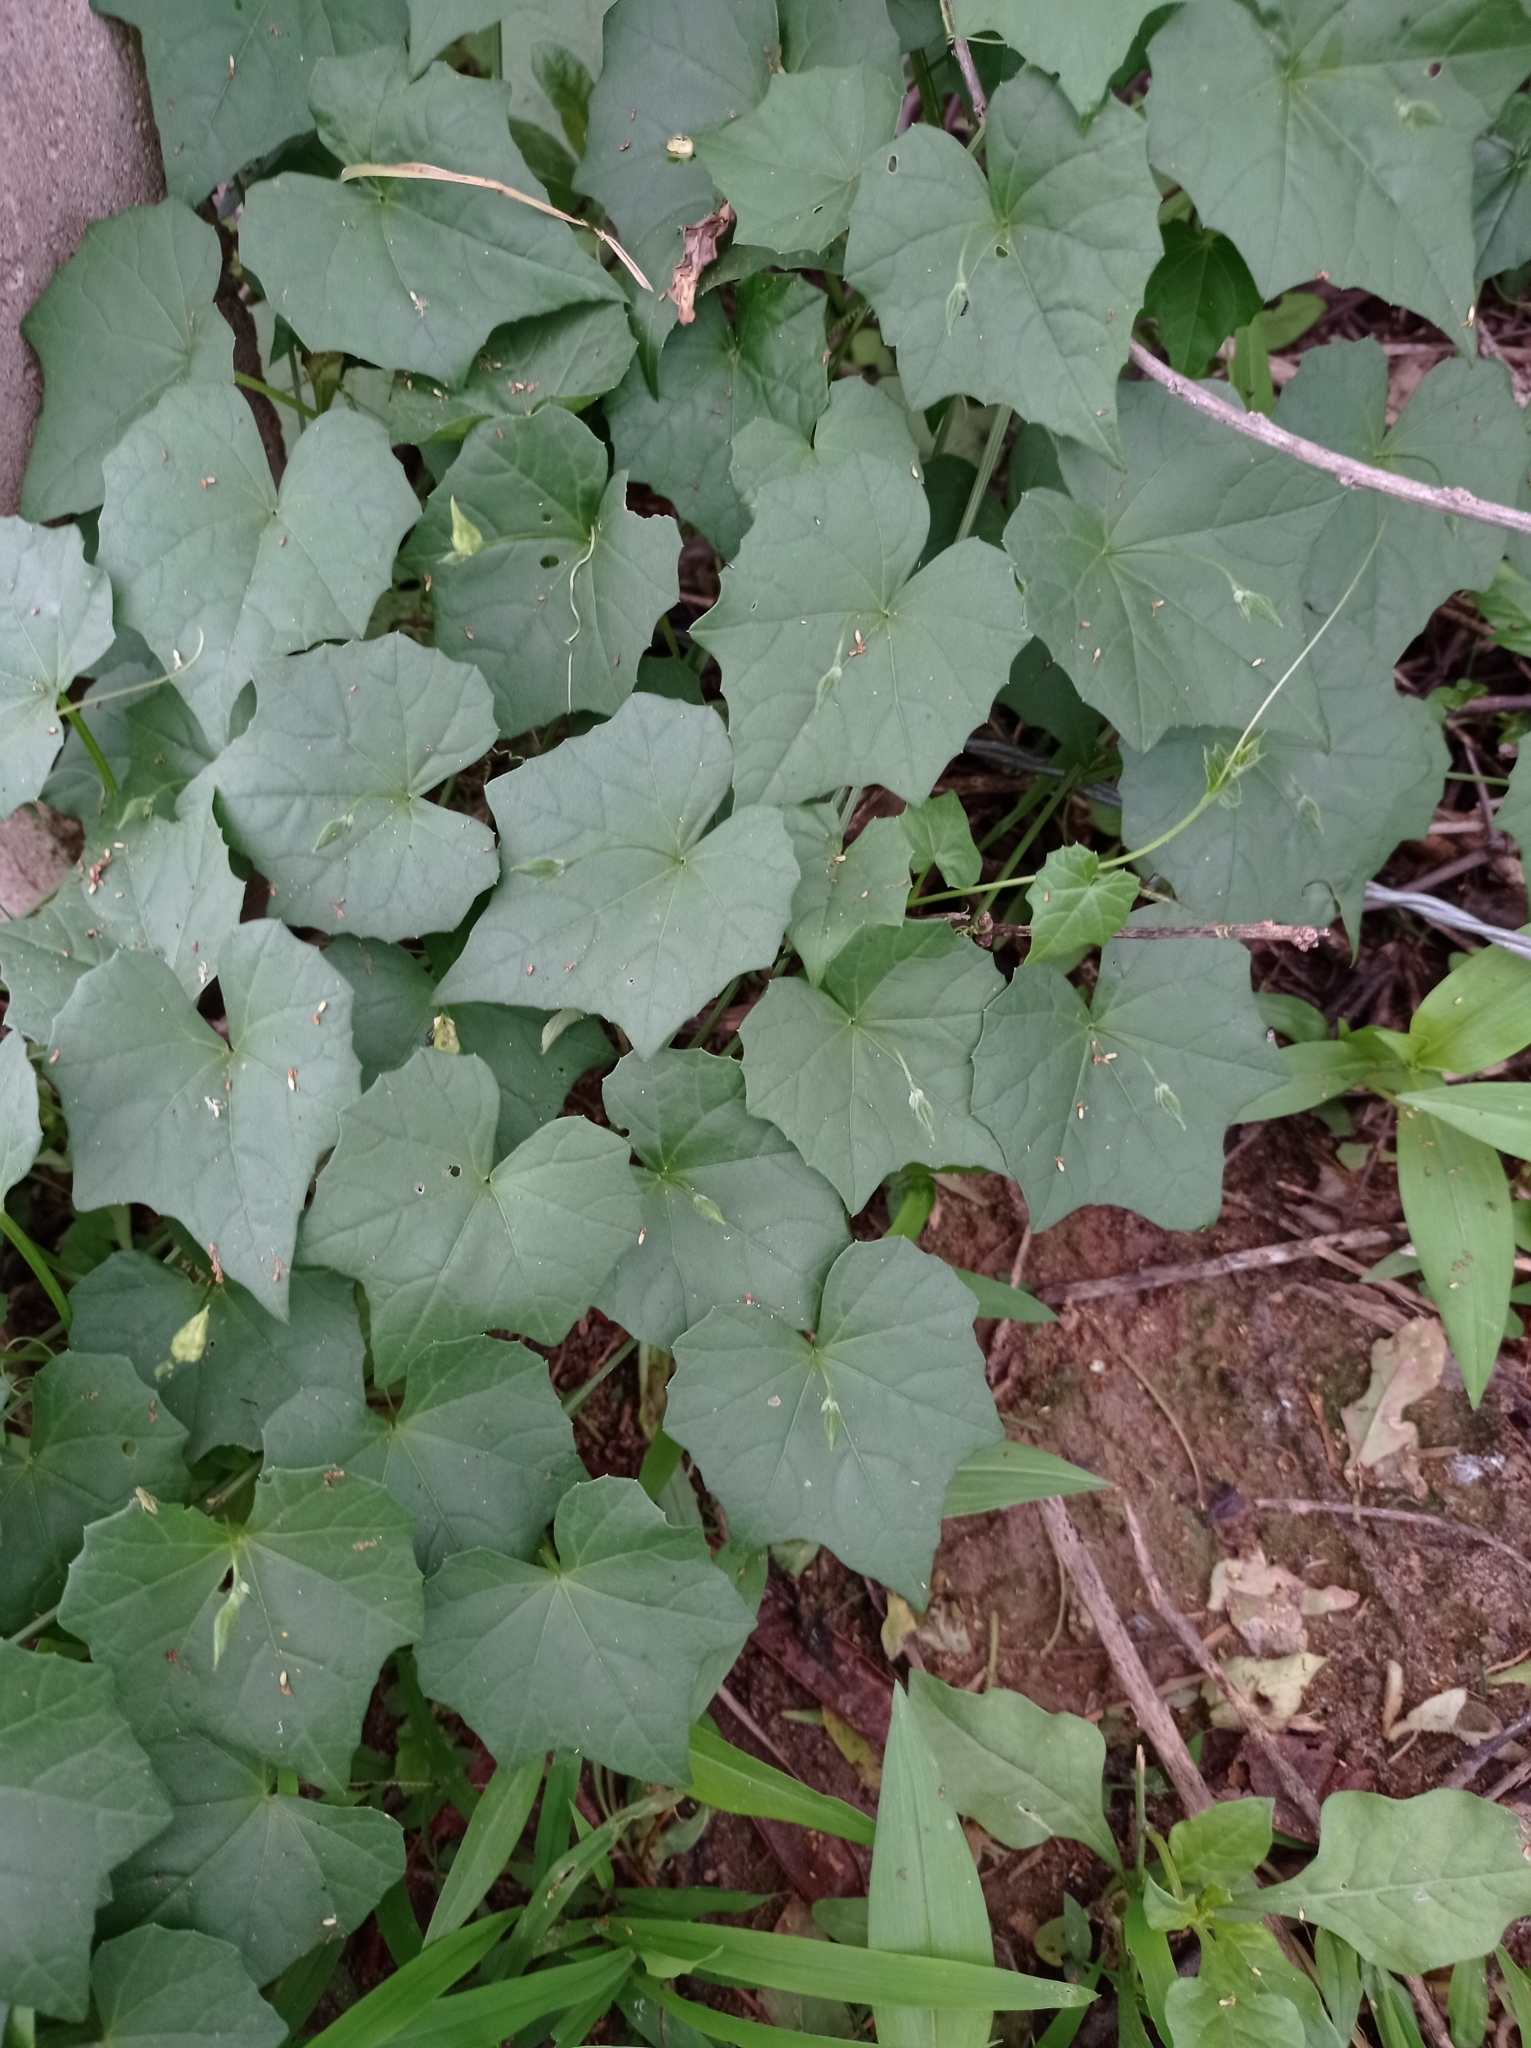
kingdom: Plantae
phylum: Tracheophyta
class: Magnoliopsida
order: Cucurbitales
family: Cucurbitaceae
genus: Momordica
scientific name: Momordica boivinii
